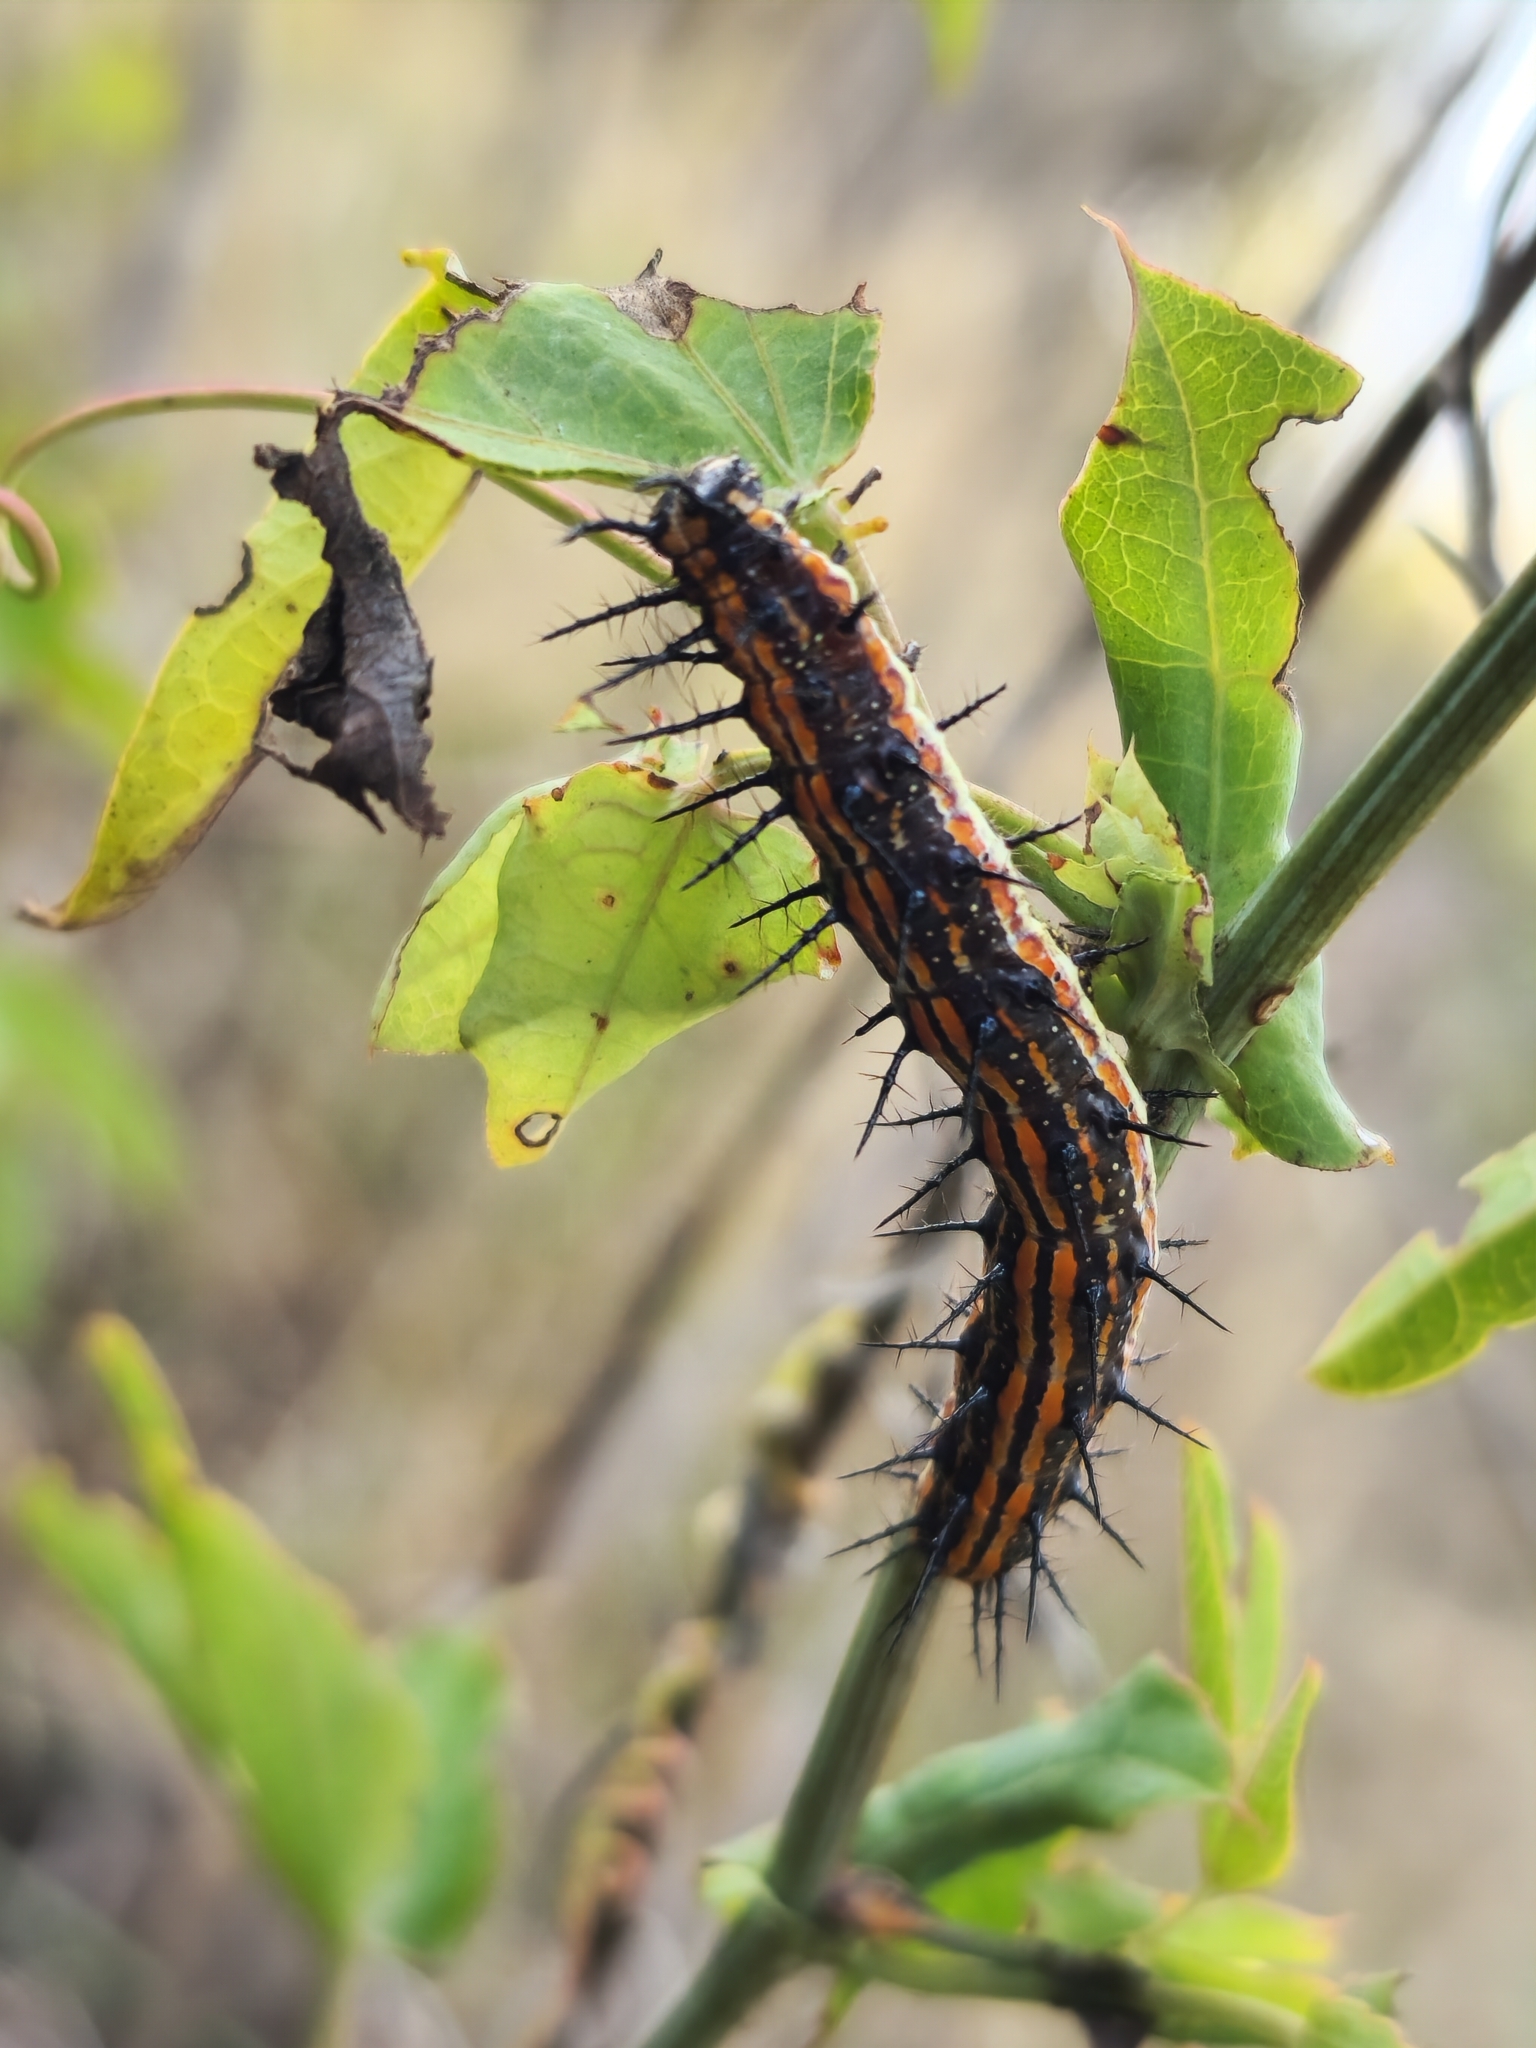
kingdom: Plantae
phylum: Tracheophyta
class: Magnoliopsida
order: Malpighiales
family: Passifloraceae
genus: Passiflora
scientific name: Passiflora tucumanensis
